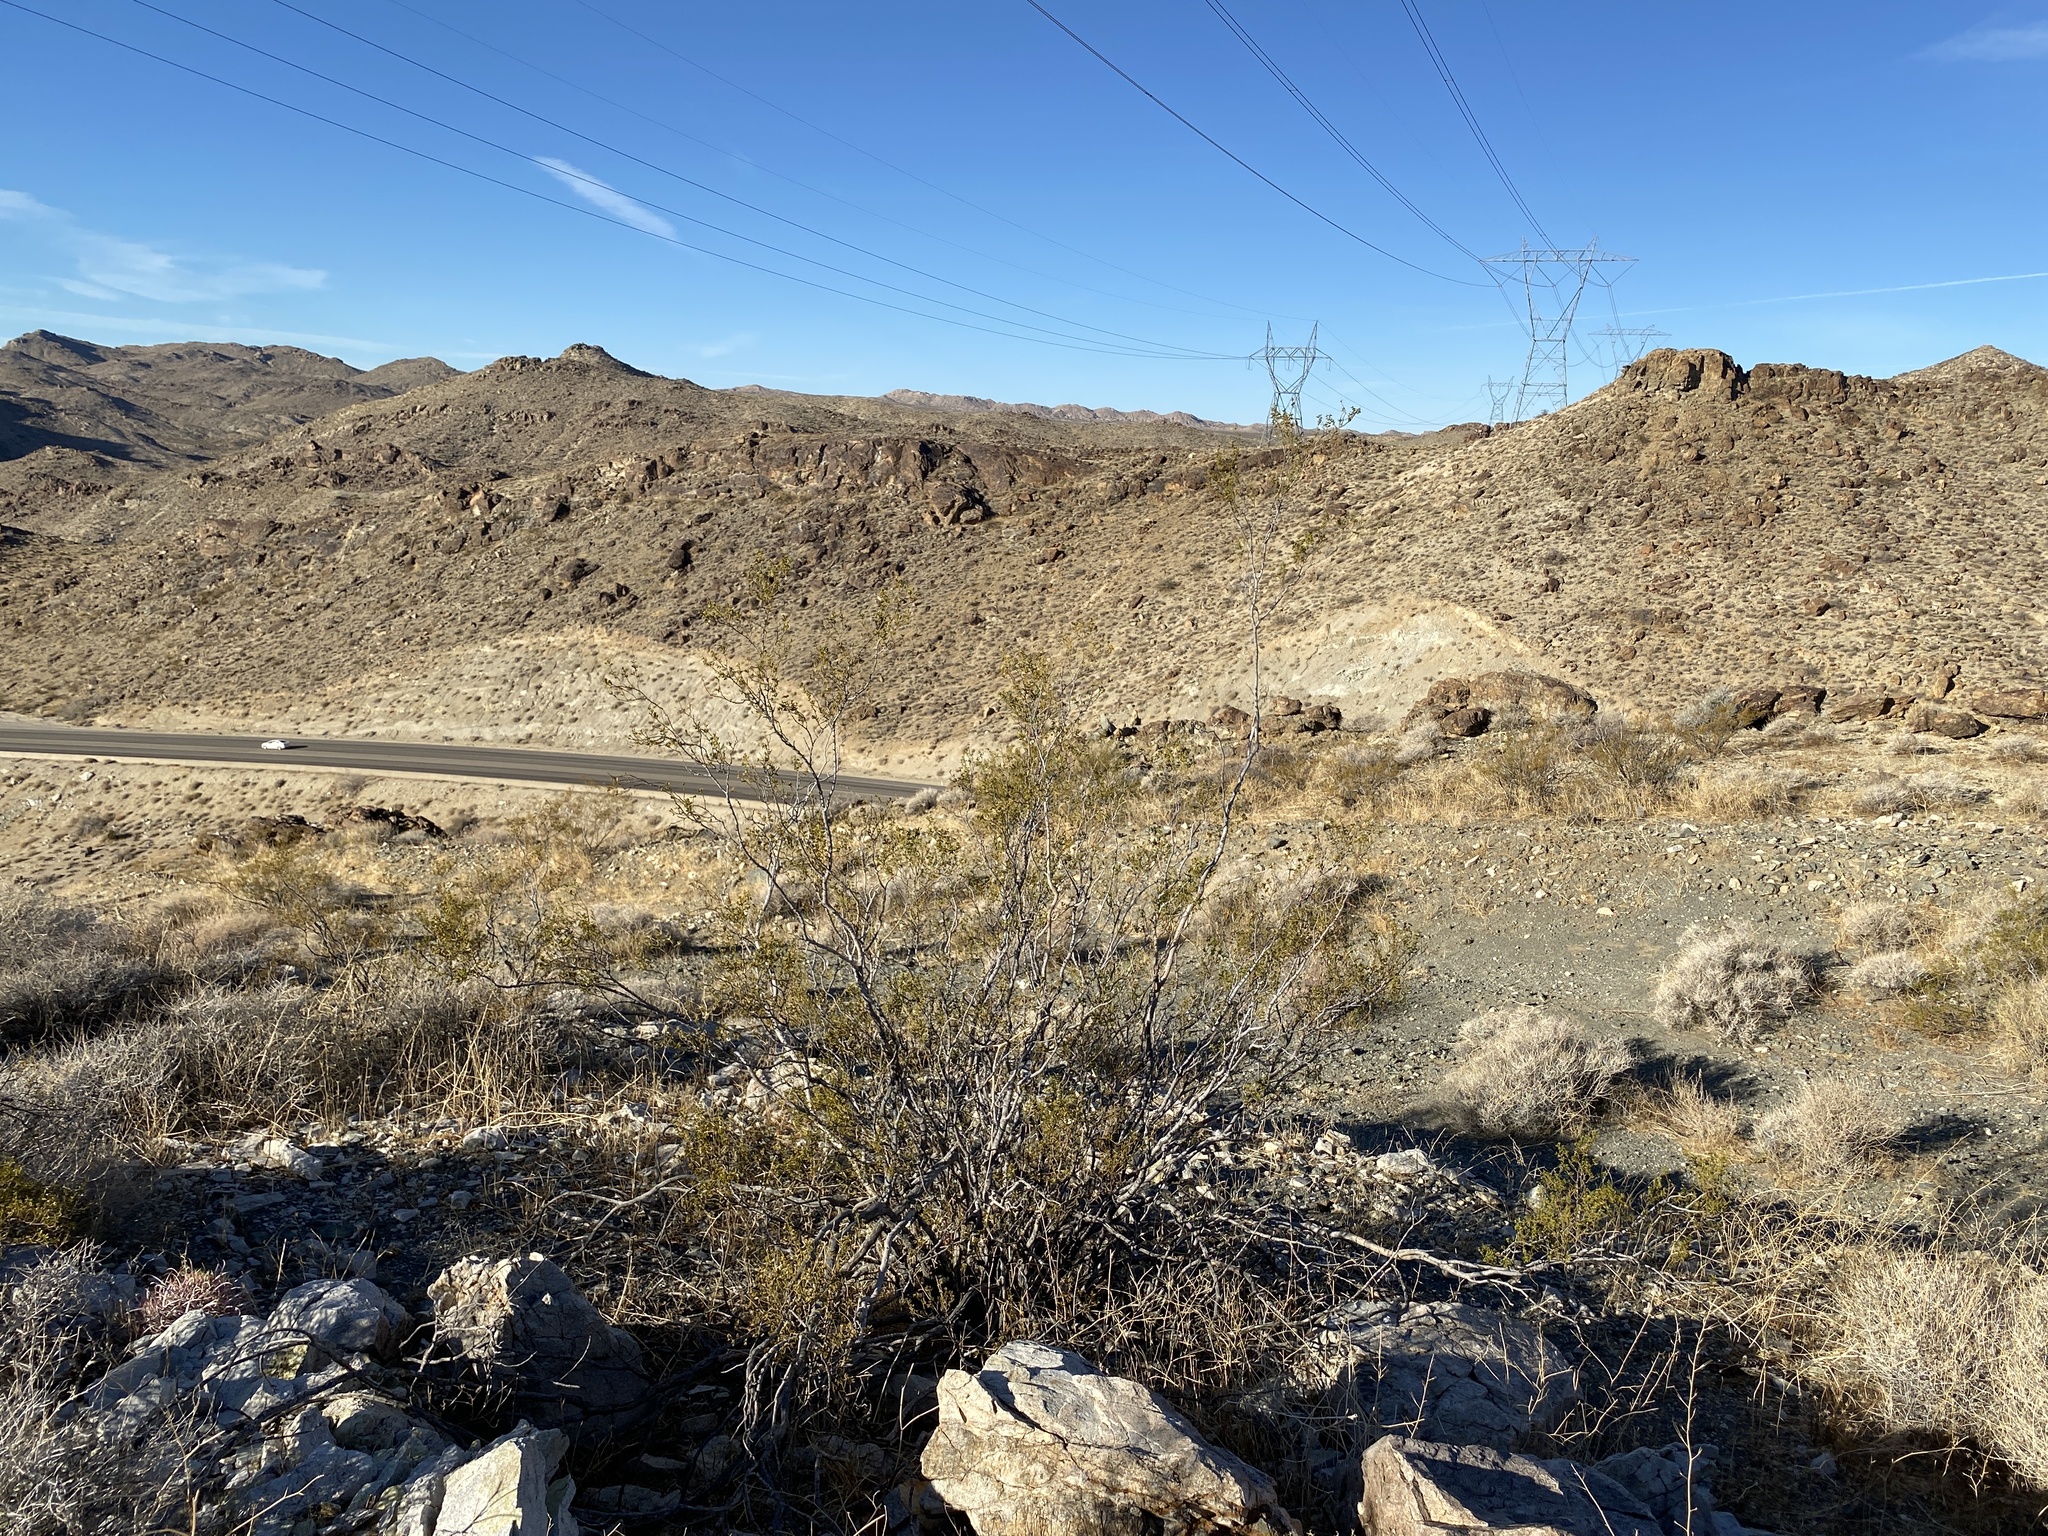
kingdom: Plantae
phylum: Tracheophyta
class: Magnoliopsida
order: Zygophyllales
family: Zygophyllaceae
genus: Larrea
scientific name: Larrea tridentata
